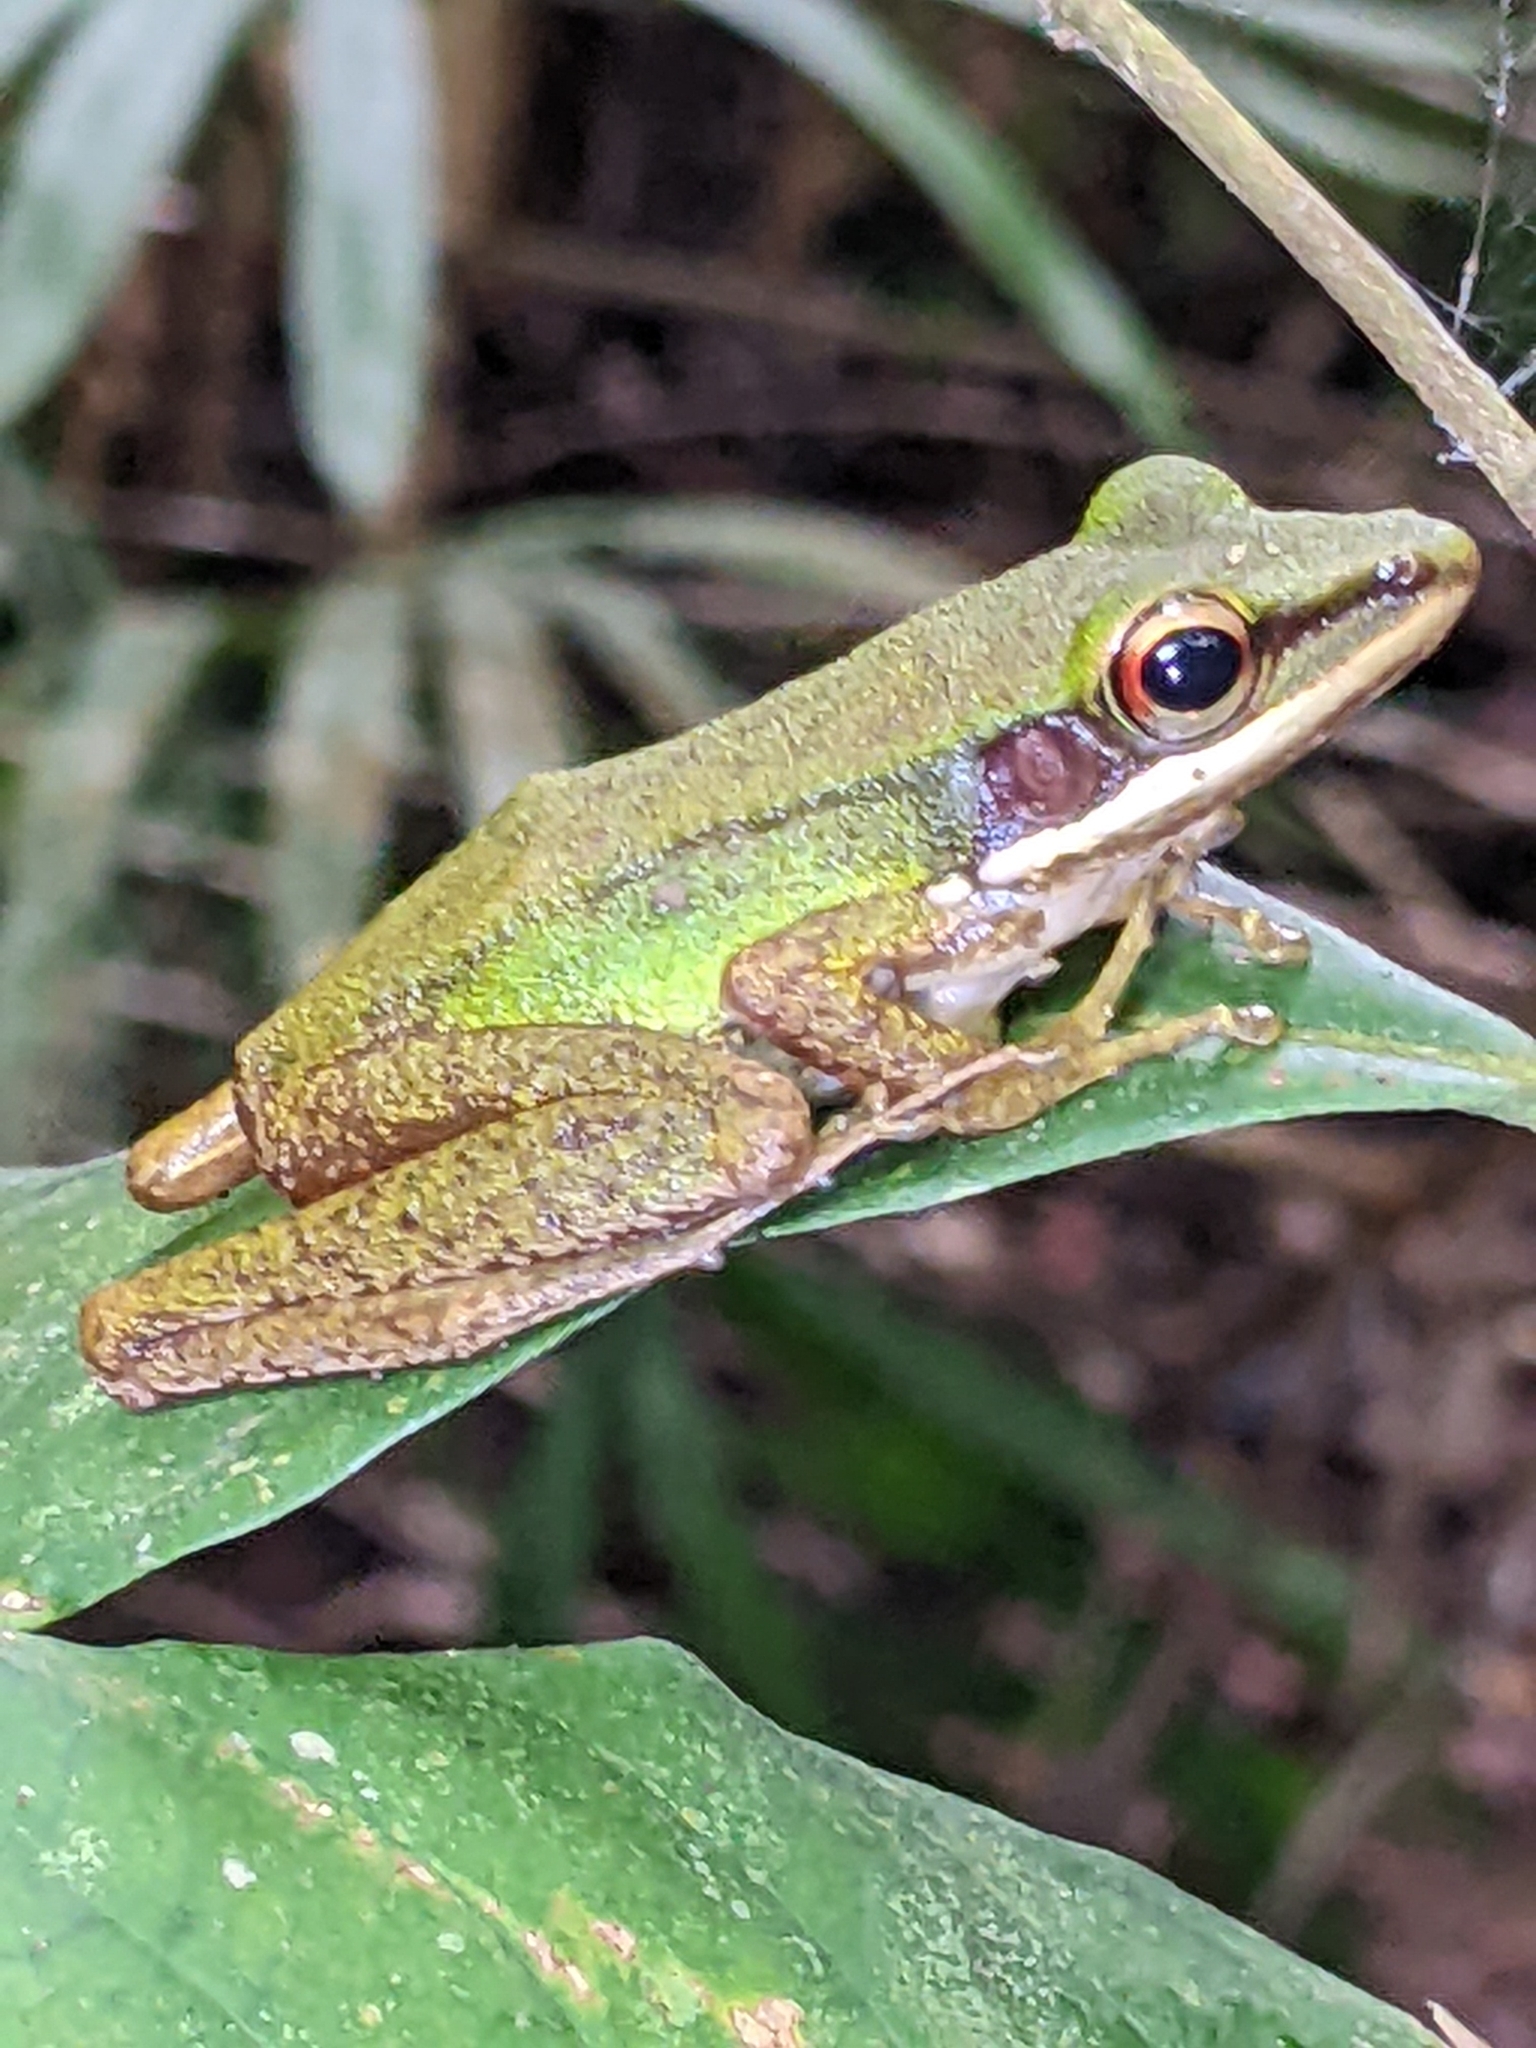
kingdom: Animalia
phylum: Chordata
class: Amphibia
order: Anura
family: Ranidae
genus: Chalcorana
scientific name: Chalcorana labialis
